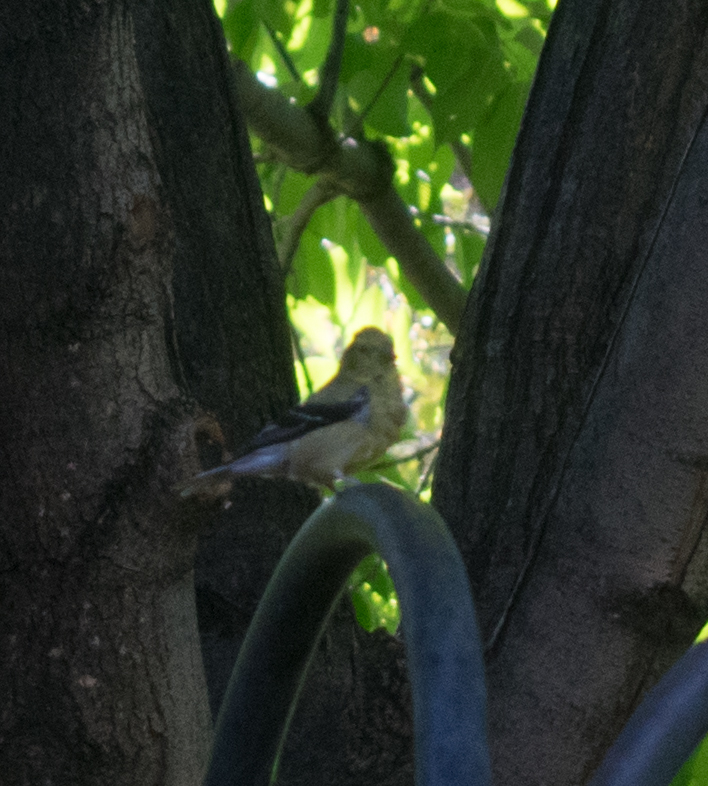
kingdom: Animalia
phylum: Chordata
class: Aves
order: Passeriformes
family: Fringillidae
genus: Spinus
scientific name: Spinus tristis
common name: American goldfinch
